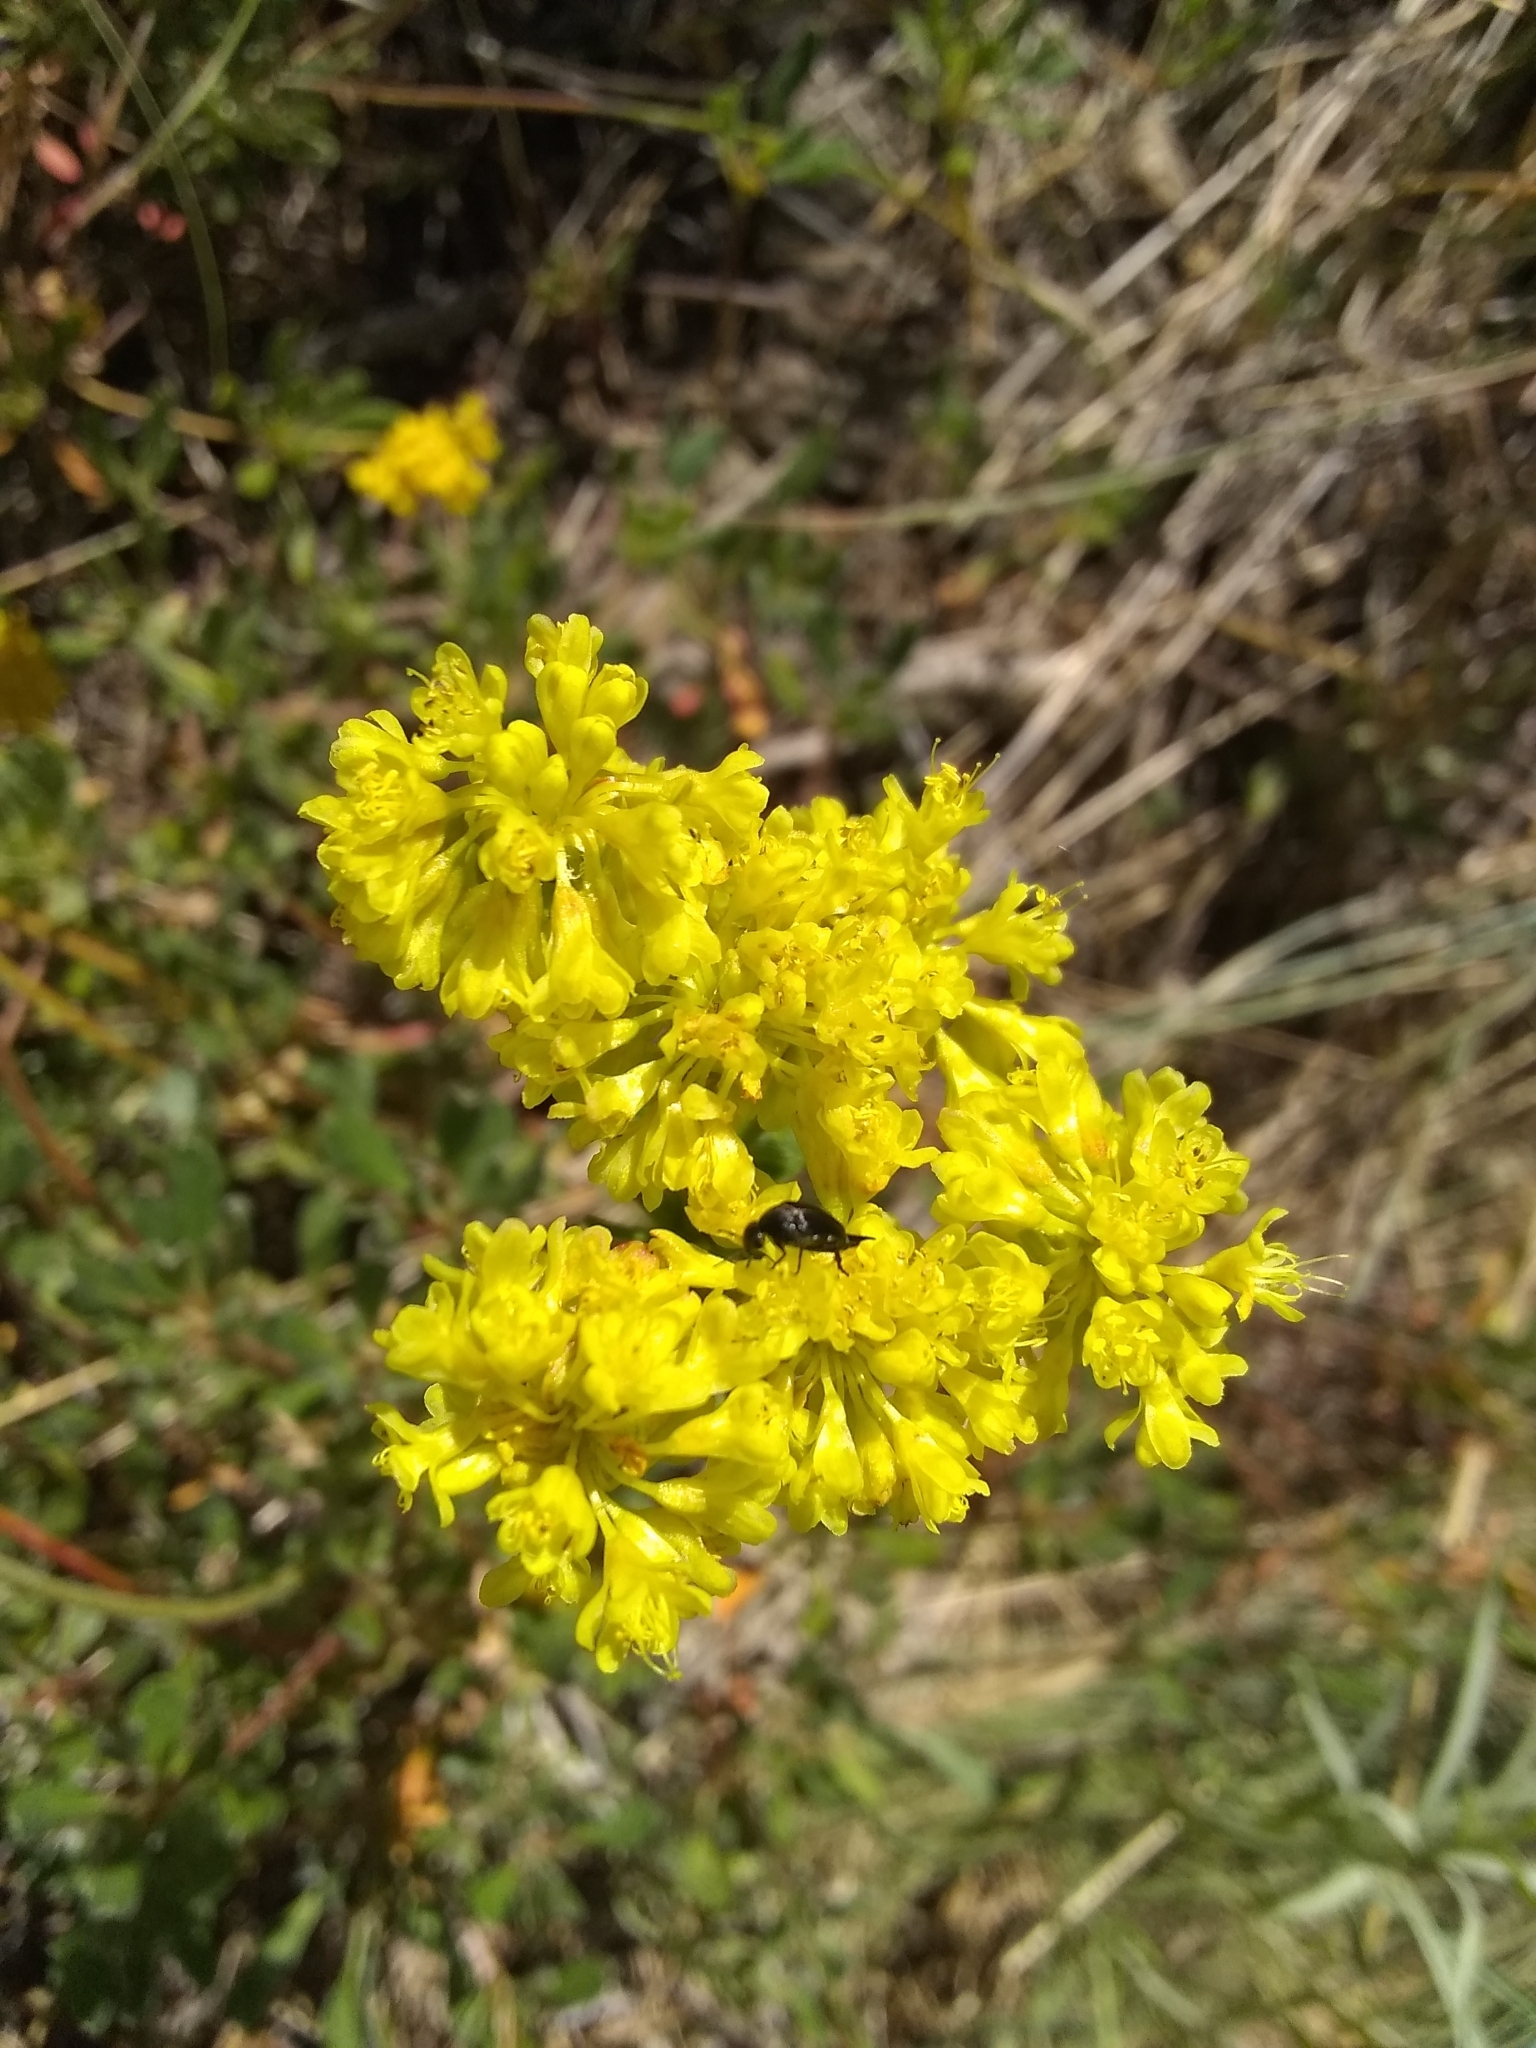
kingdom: Plantae
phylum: Tracheophyta
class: Magnoliopsida
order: Caryophyllales
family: Polygonaceae
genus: Eriogonum
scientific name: Eriogonum umbellatum
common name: Sulfur-buckwheat
